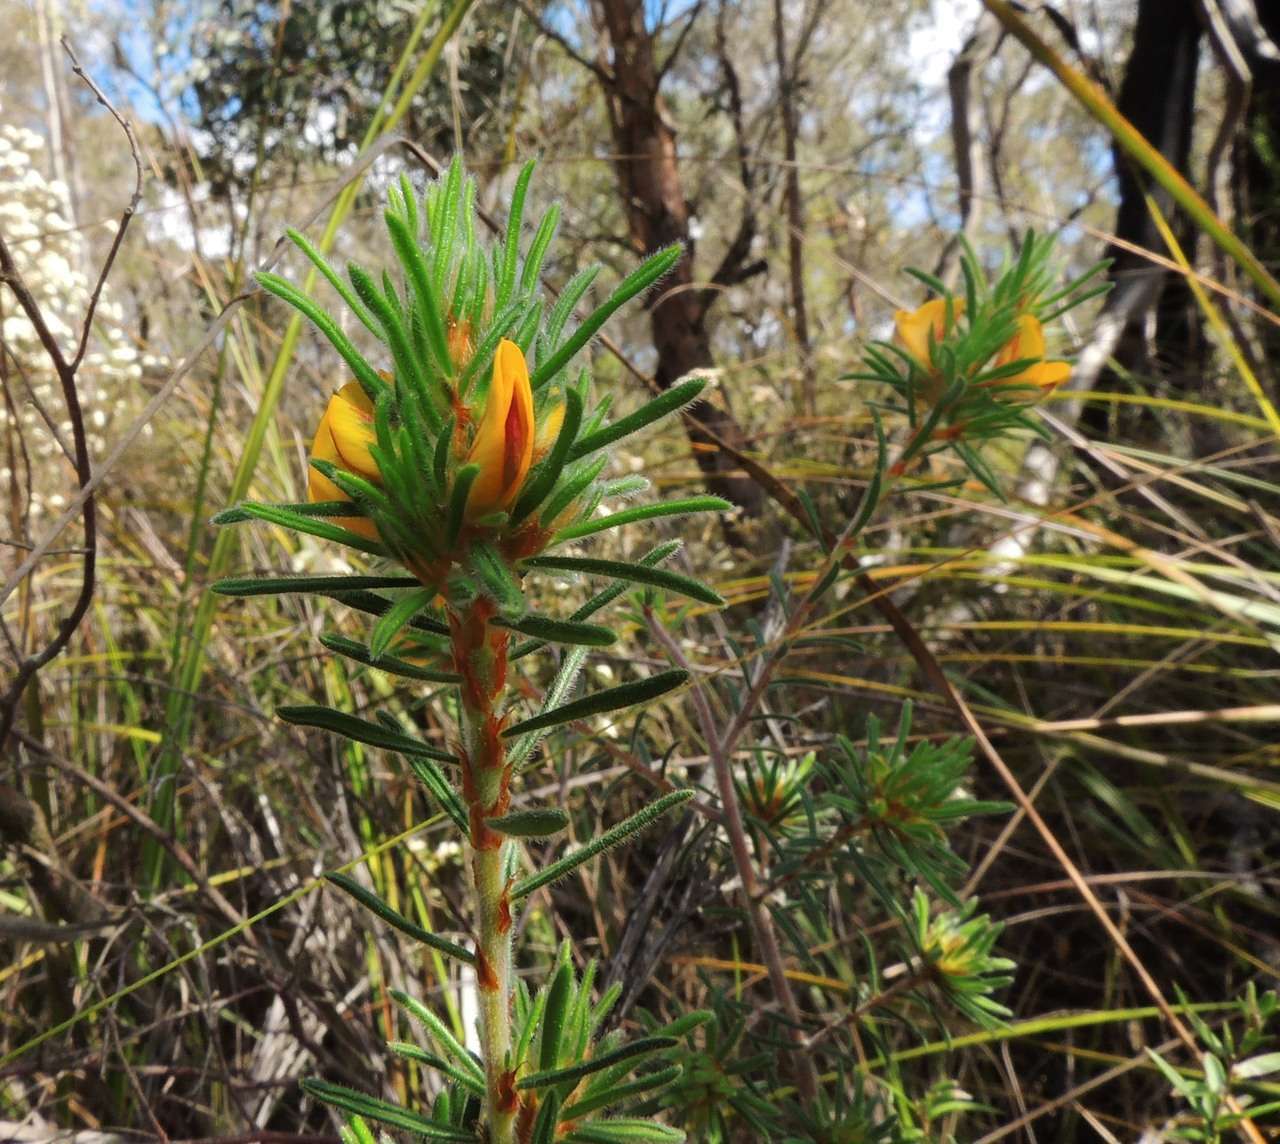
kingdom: Plantae
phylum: Tracheophyta
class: Magnoliopsida
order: Fabales
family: Fabaceae
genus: Pultenaea
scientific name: Pultenaea daltonii
